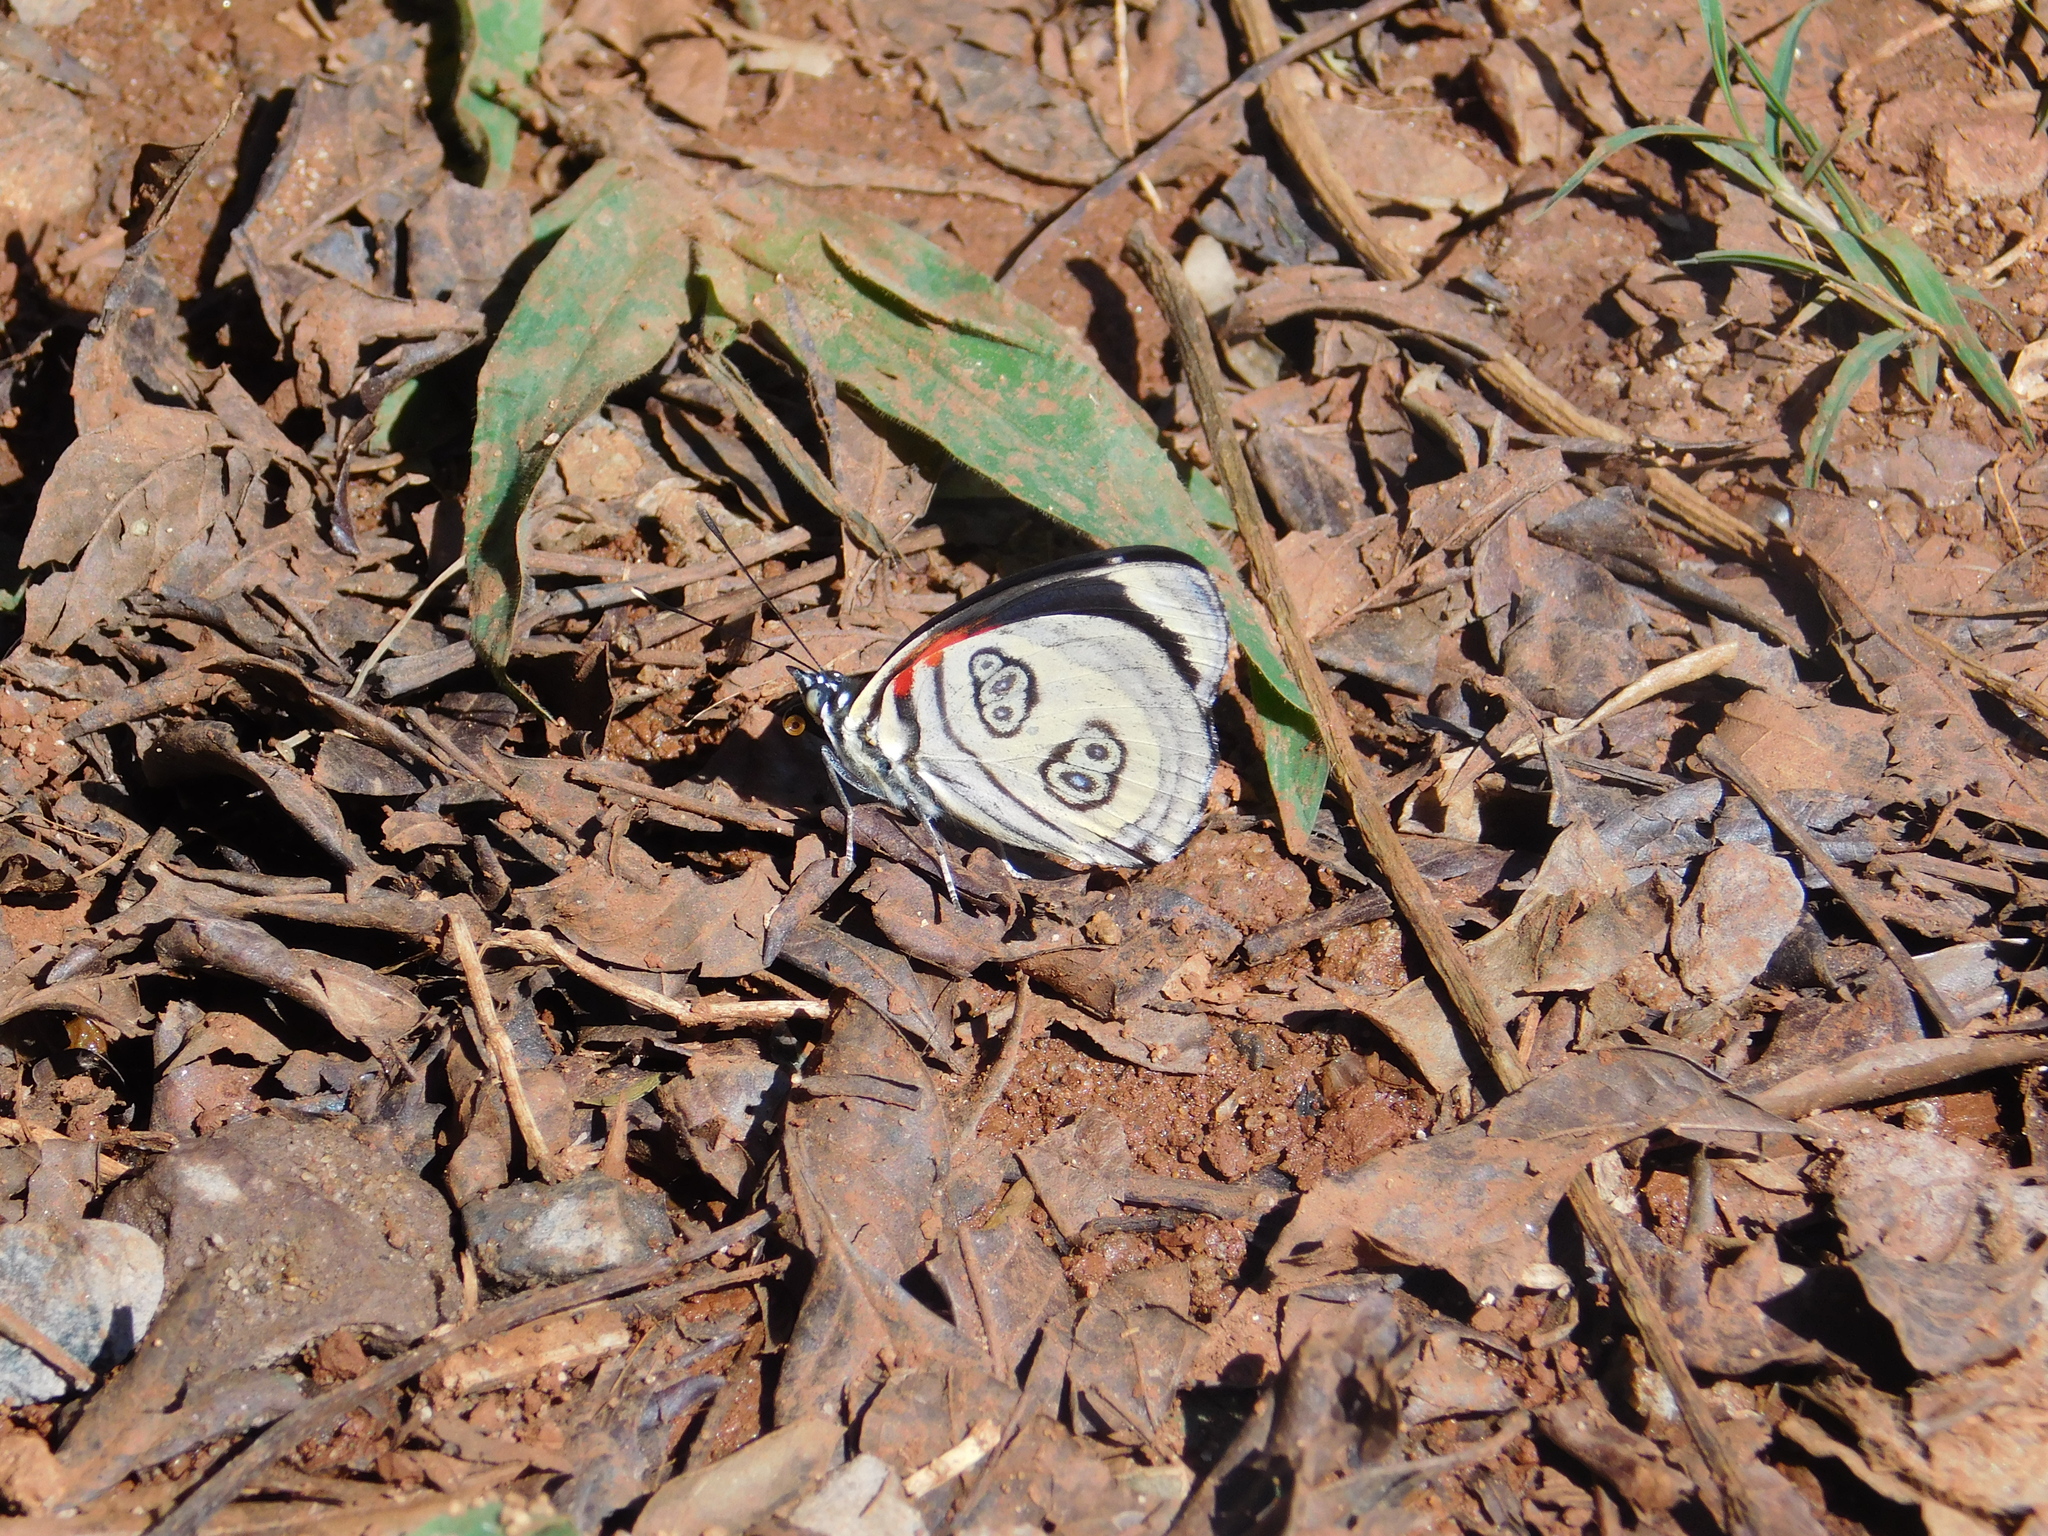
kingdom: Animalia
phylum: Arthropoda
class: Insecta
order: Lepidoptera
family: Nymphalidae
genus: Catagramma
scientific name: Catagramma pygas
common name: Godart's numberwing
